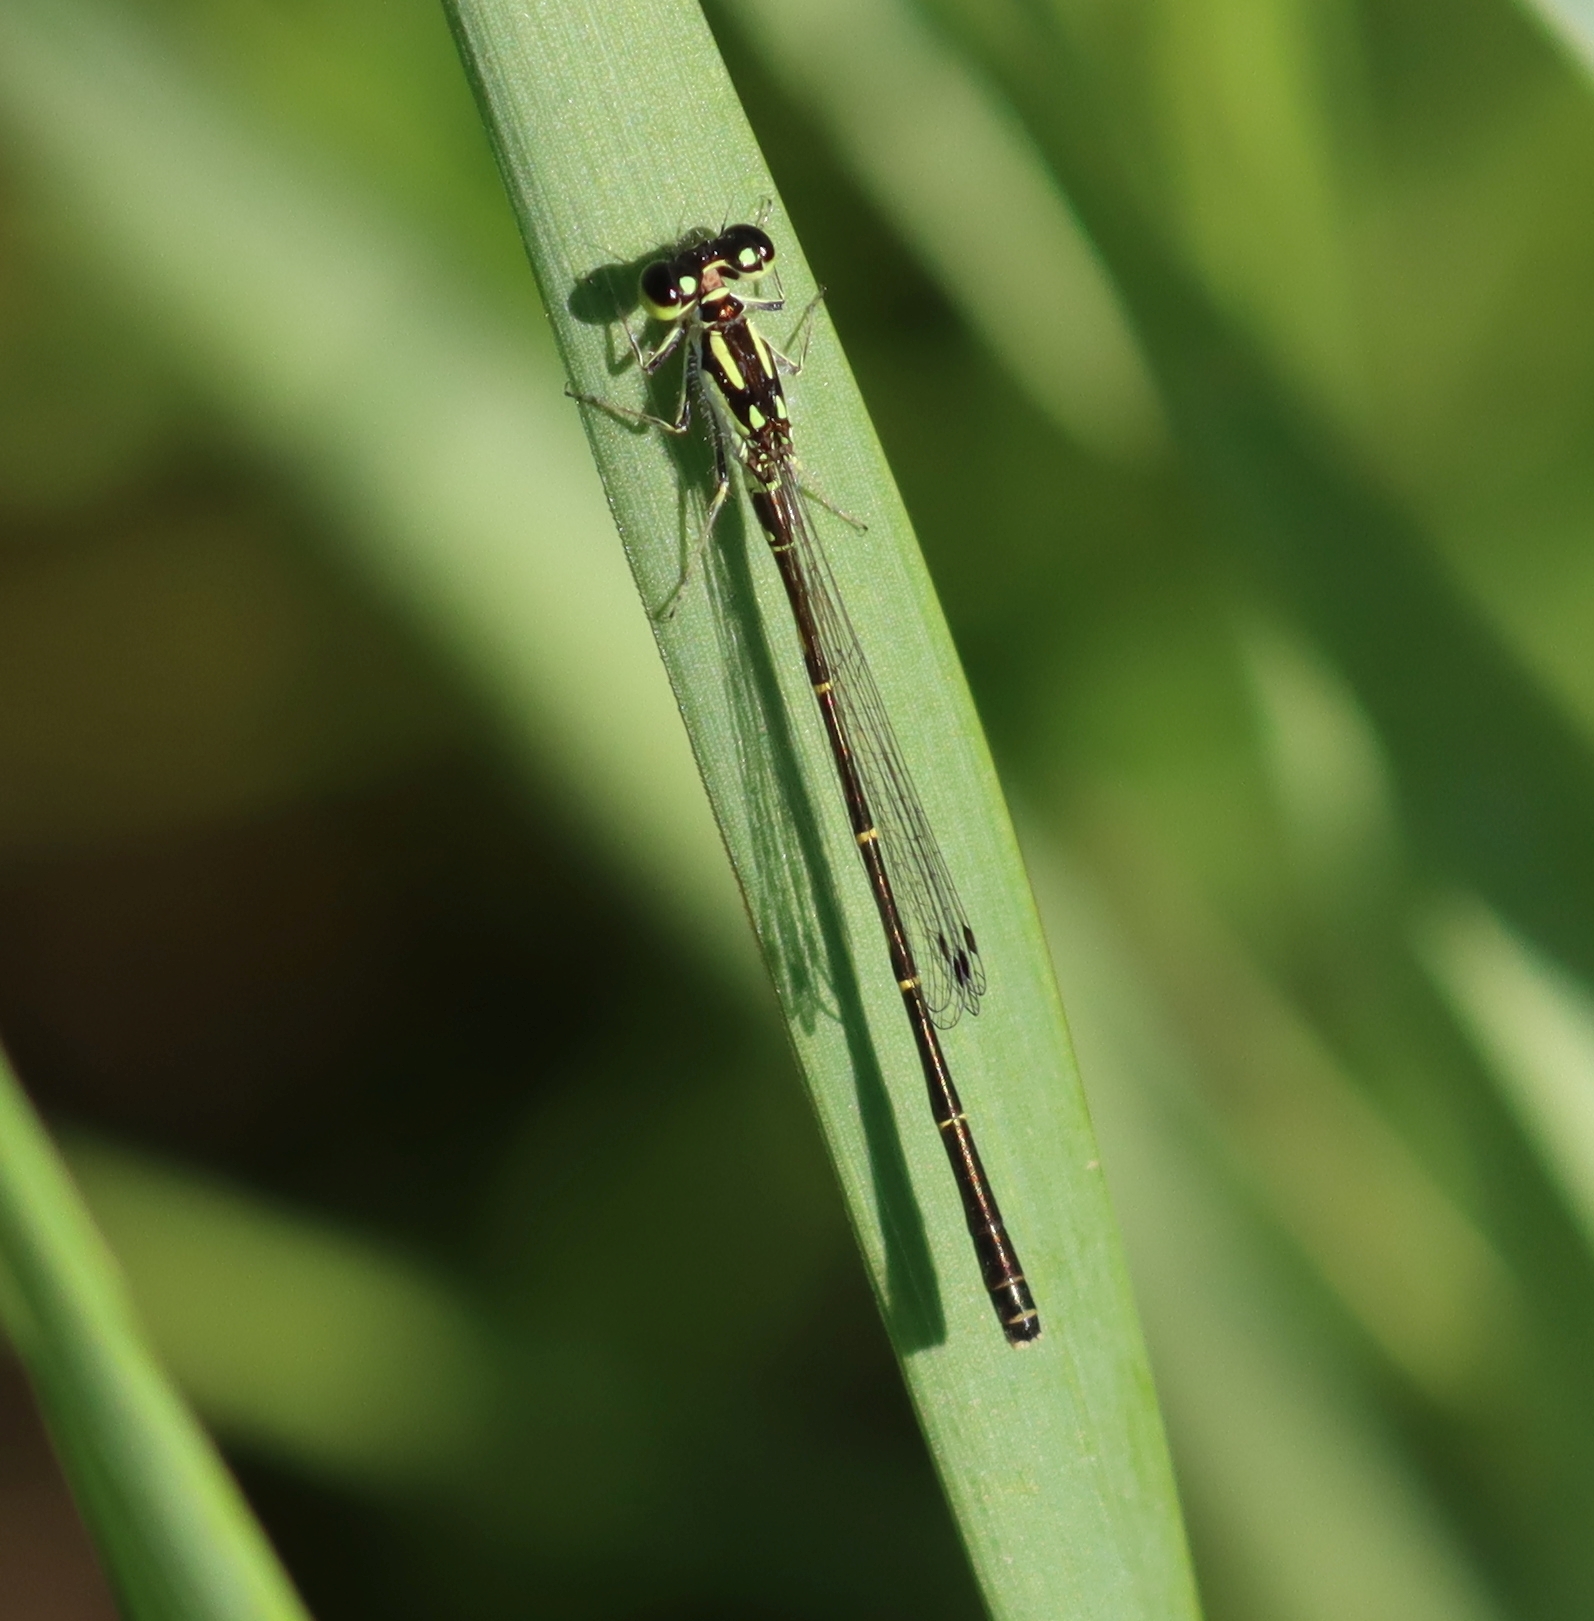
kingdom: Animalia
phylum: Arthropoda
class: Insecta
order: Odonata
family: Coenagrionidae
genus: Ischnura
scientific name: Ischnura posita
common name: Fragile forktail
